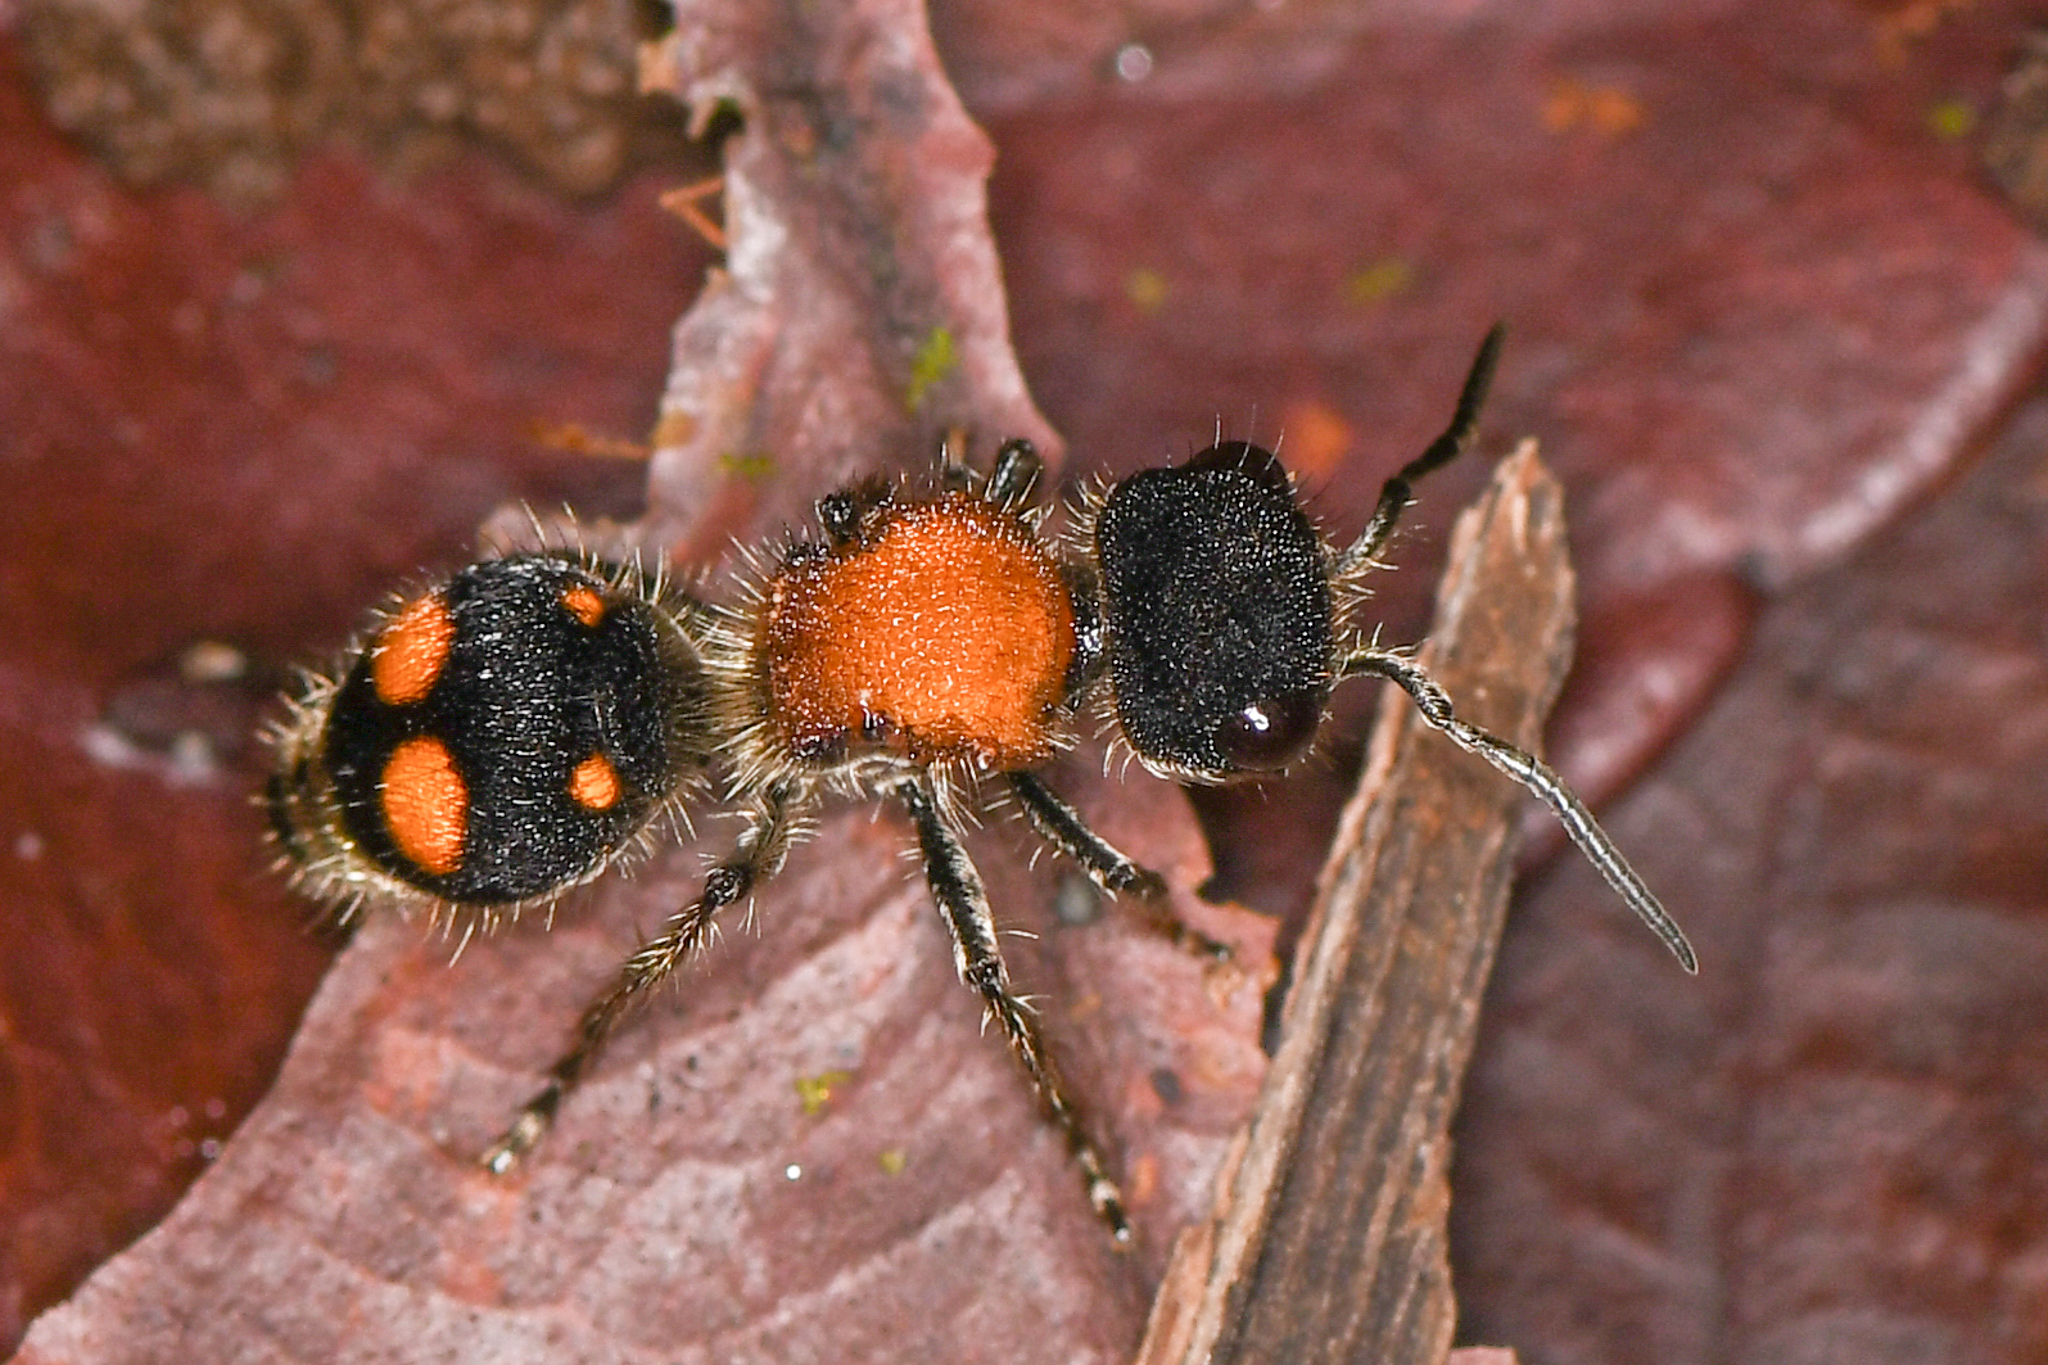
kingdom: Animalia
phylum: Arthropoda
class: Insecta
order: Hymenoptera
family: Mutillidae
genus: Pseudomethoca
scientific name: Pseudomethoca
